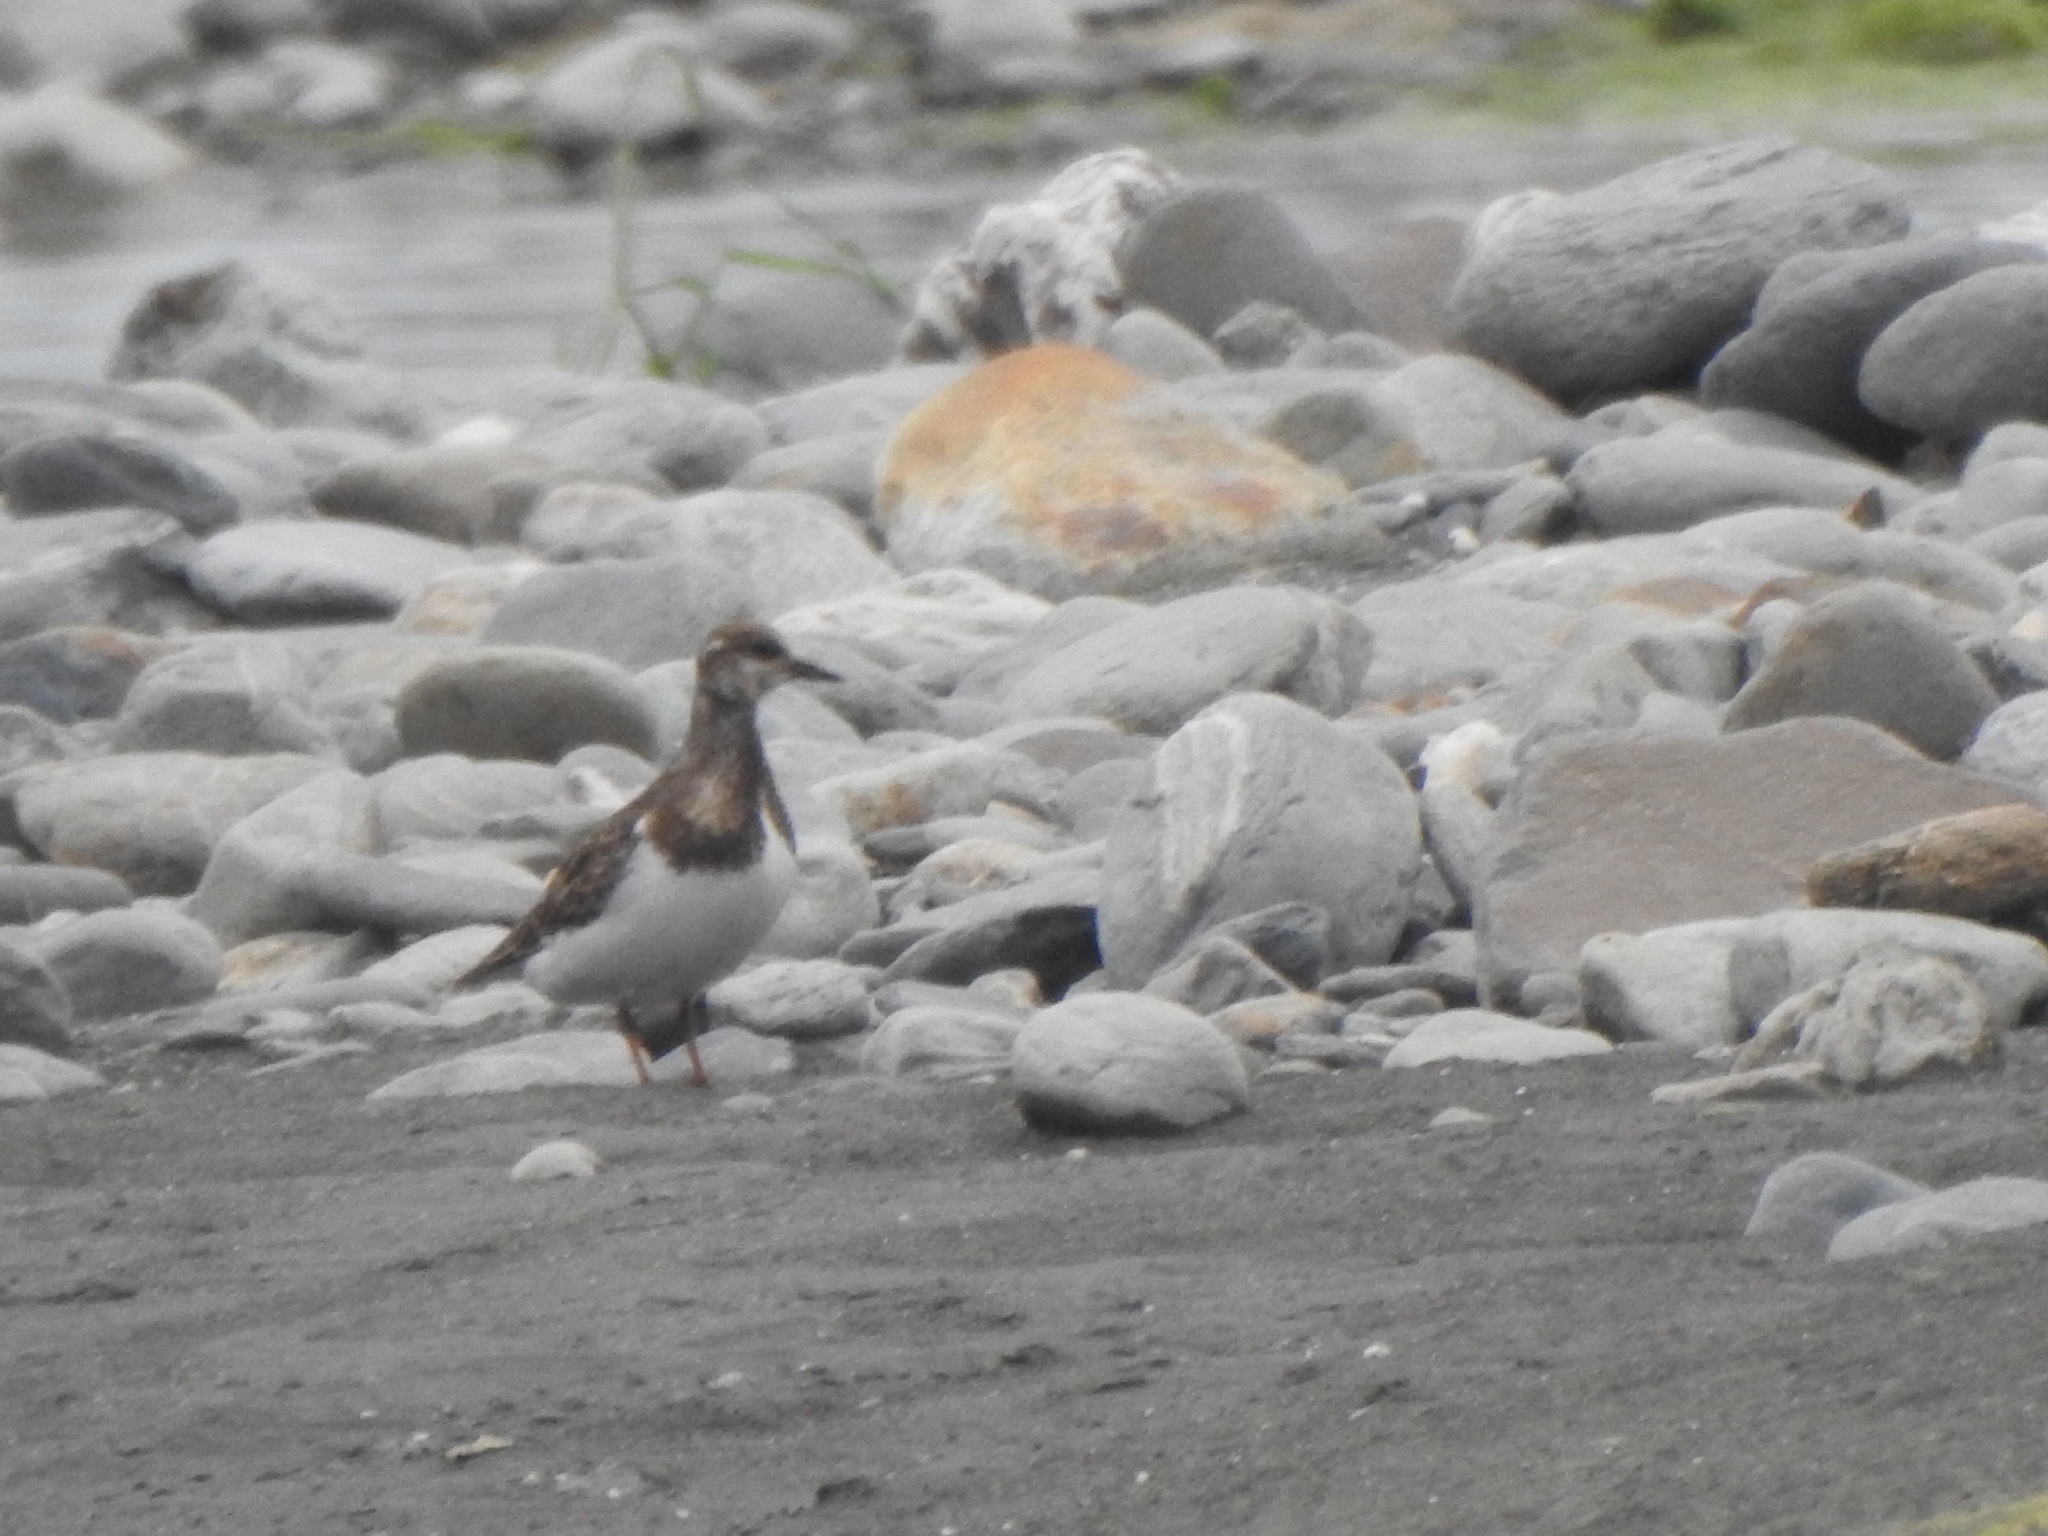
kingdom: Animalia
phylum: Chordata
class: Aves
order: Charadriiformes
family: Scolopacidae
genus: Arenaria
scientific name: Arenaria interpres
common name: Ruddy turnstone
